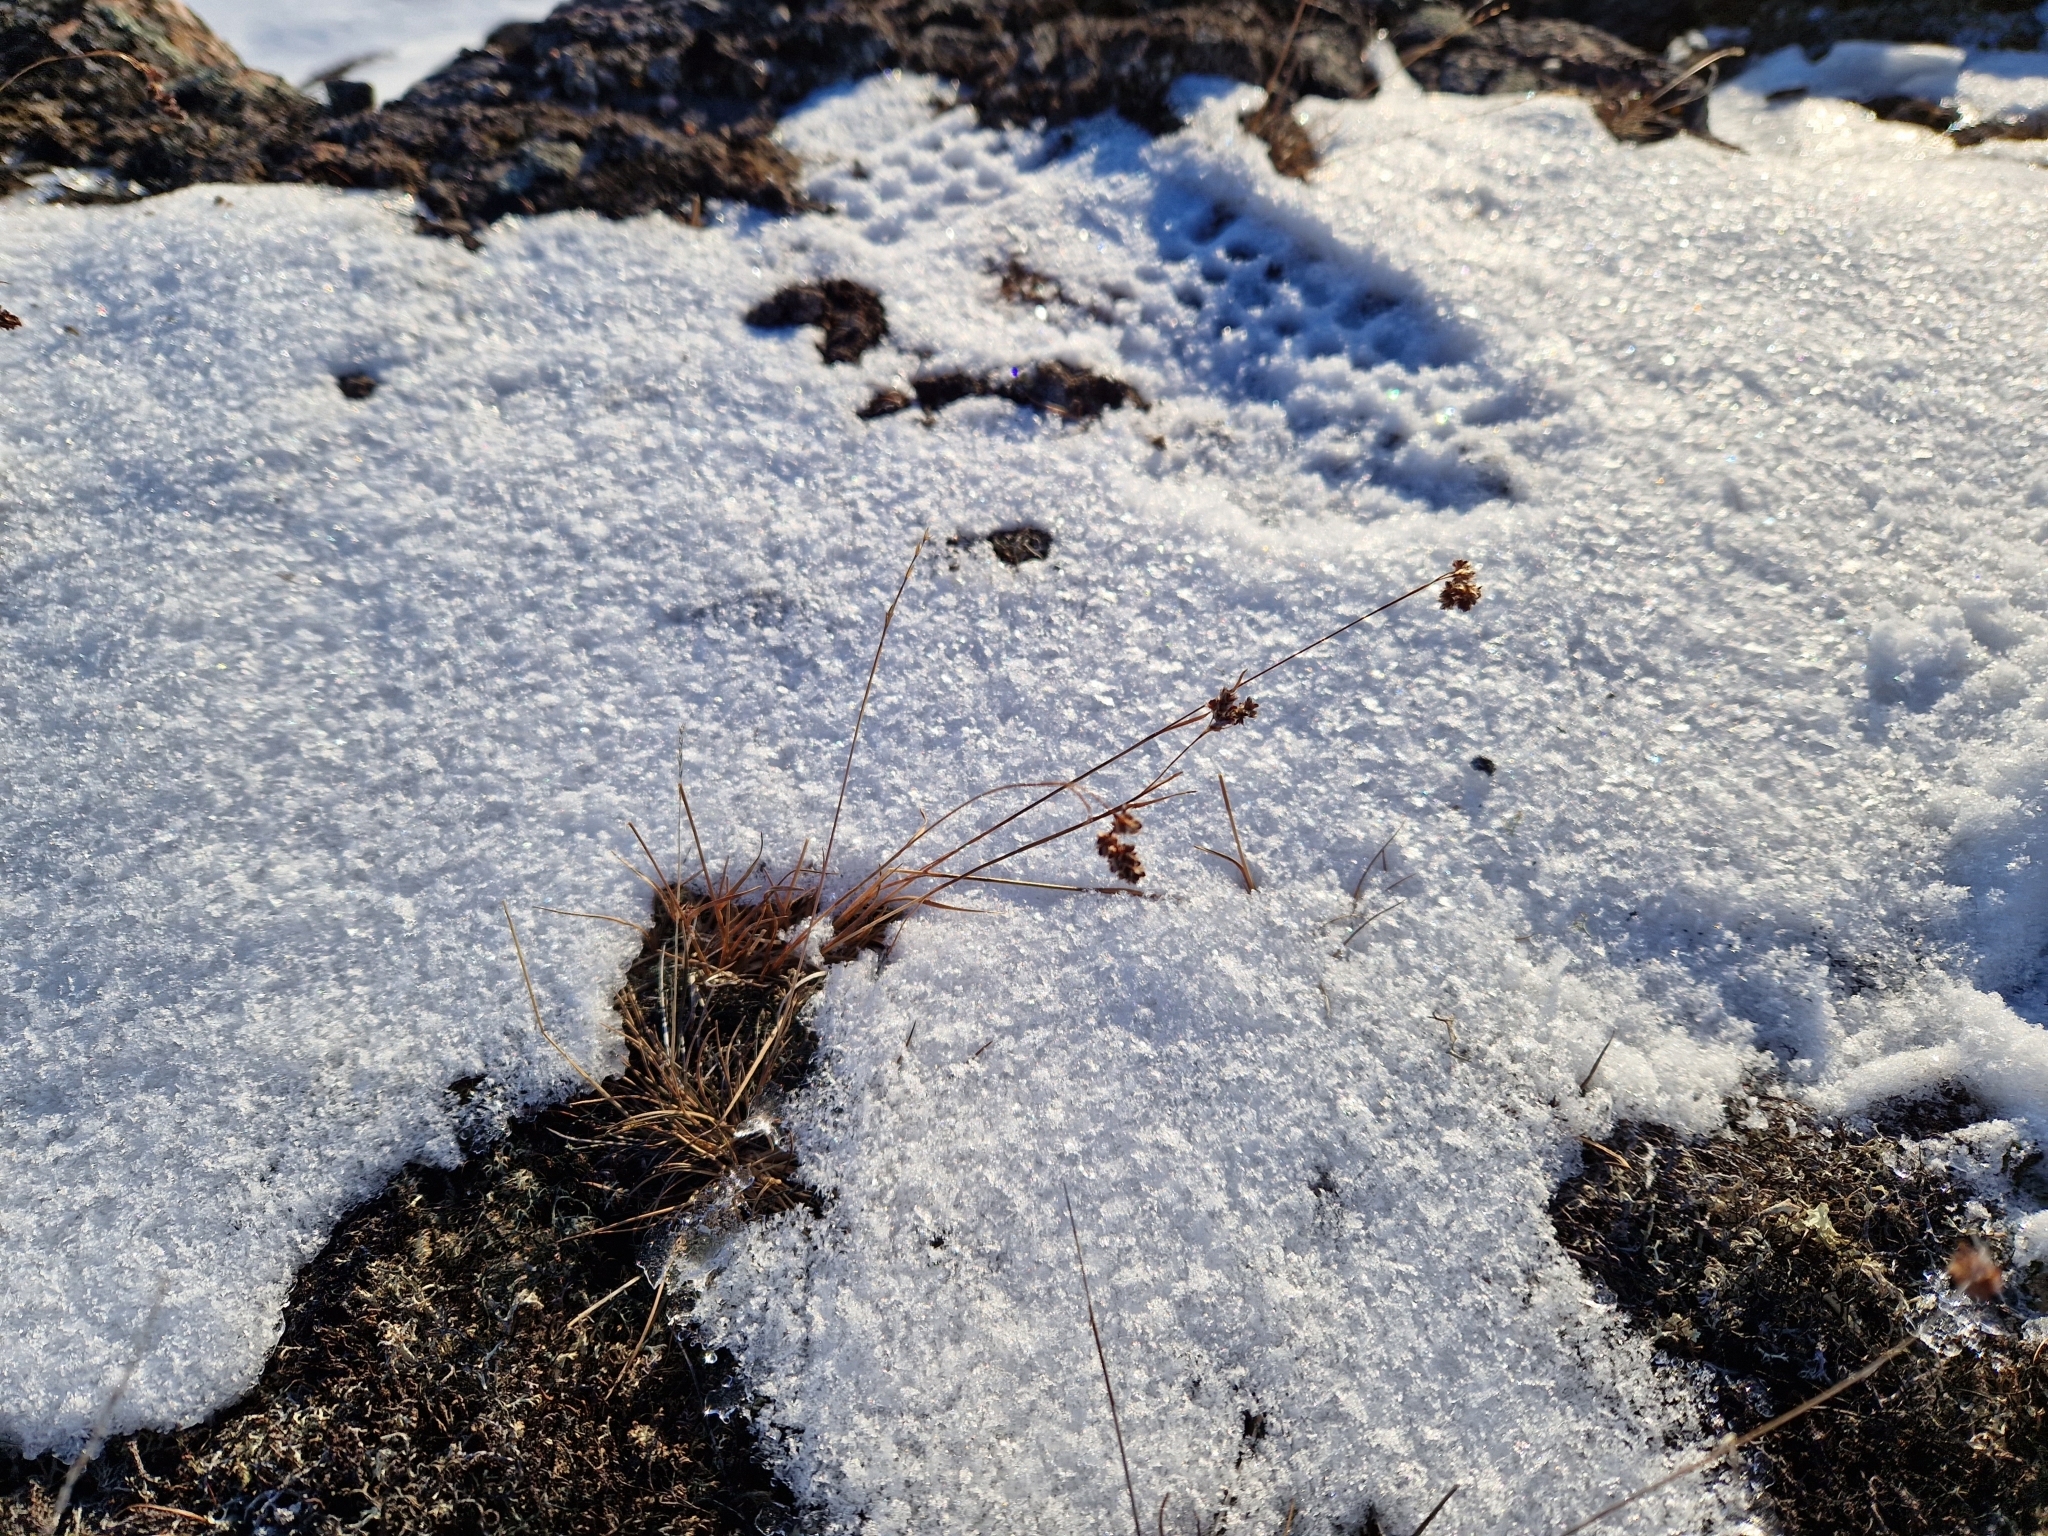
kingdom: Plantae
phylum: Tracheophyta
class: Liliopsida
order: Poales
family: Juncaceae
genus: Luzula
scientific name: Luzula confusa
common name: Northern wood rush
